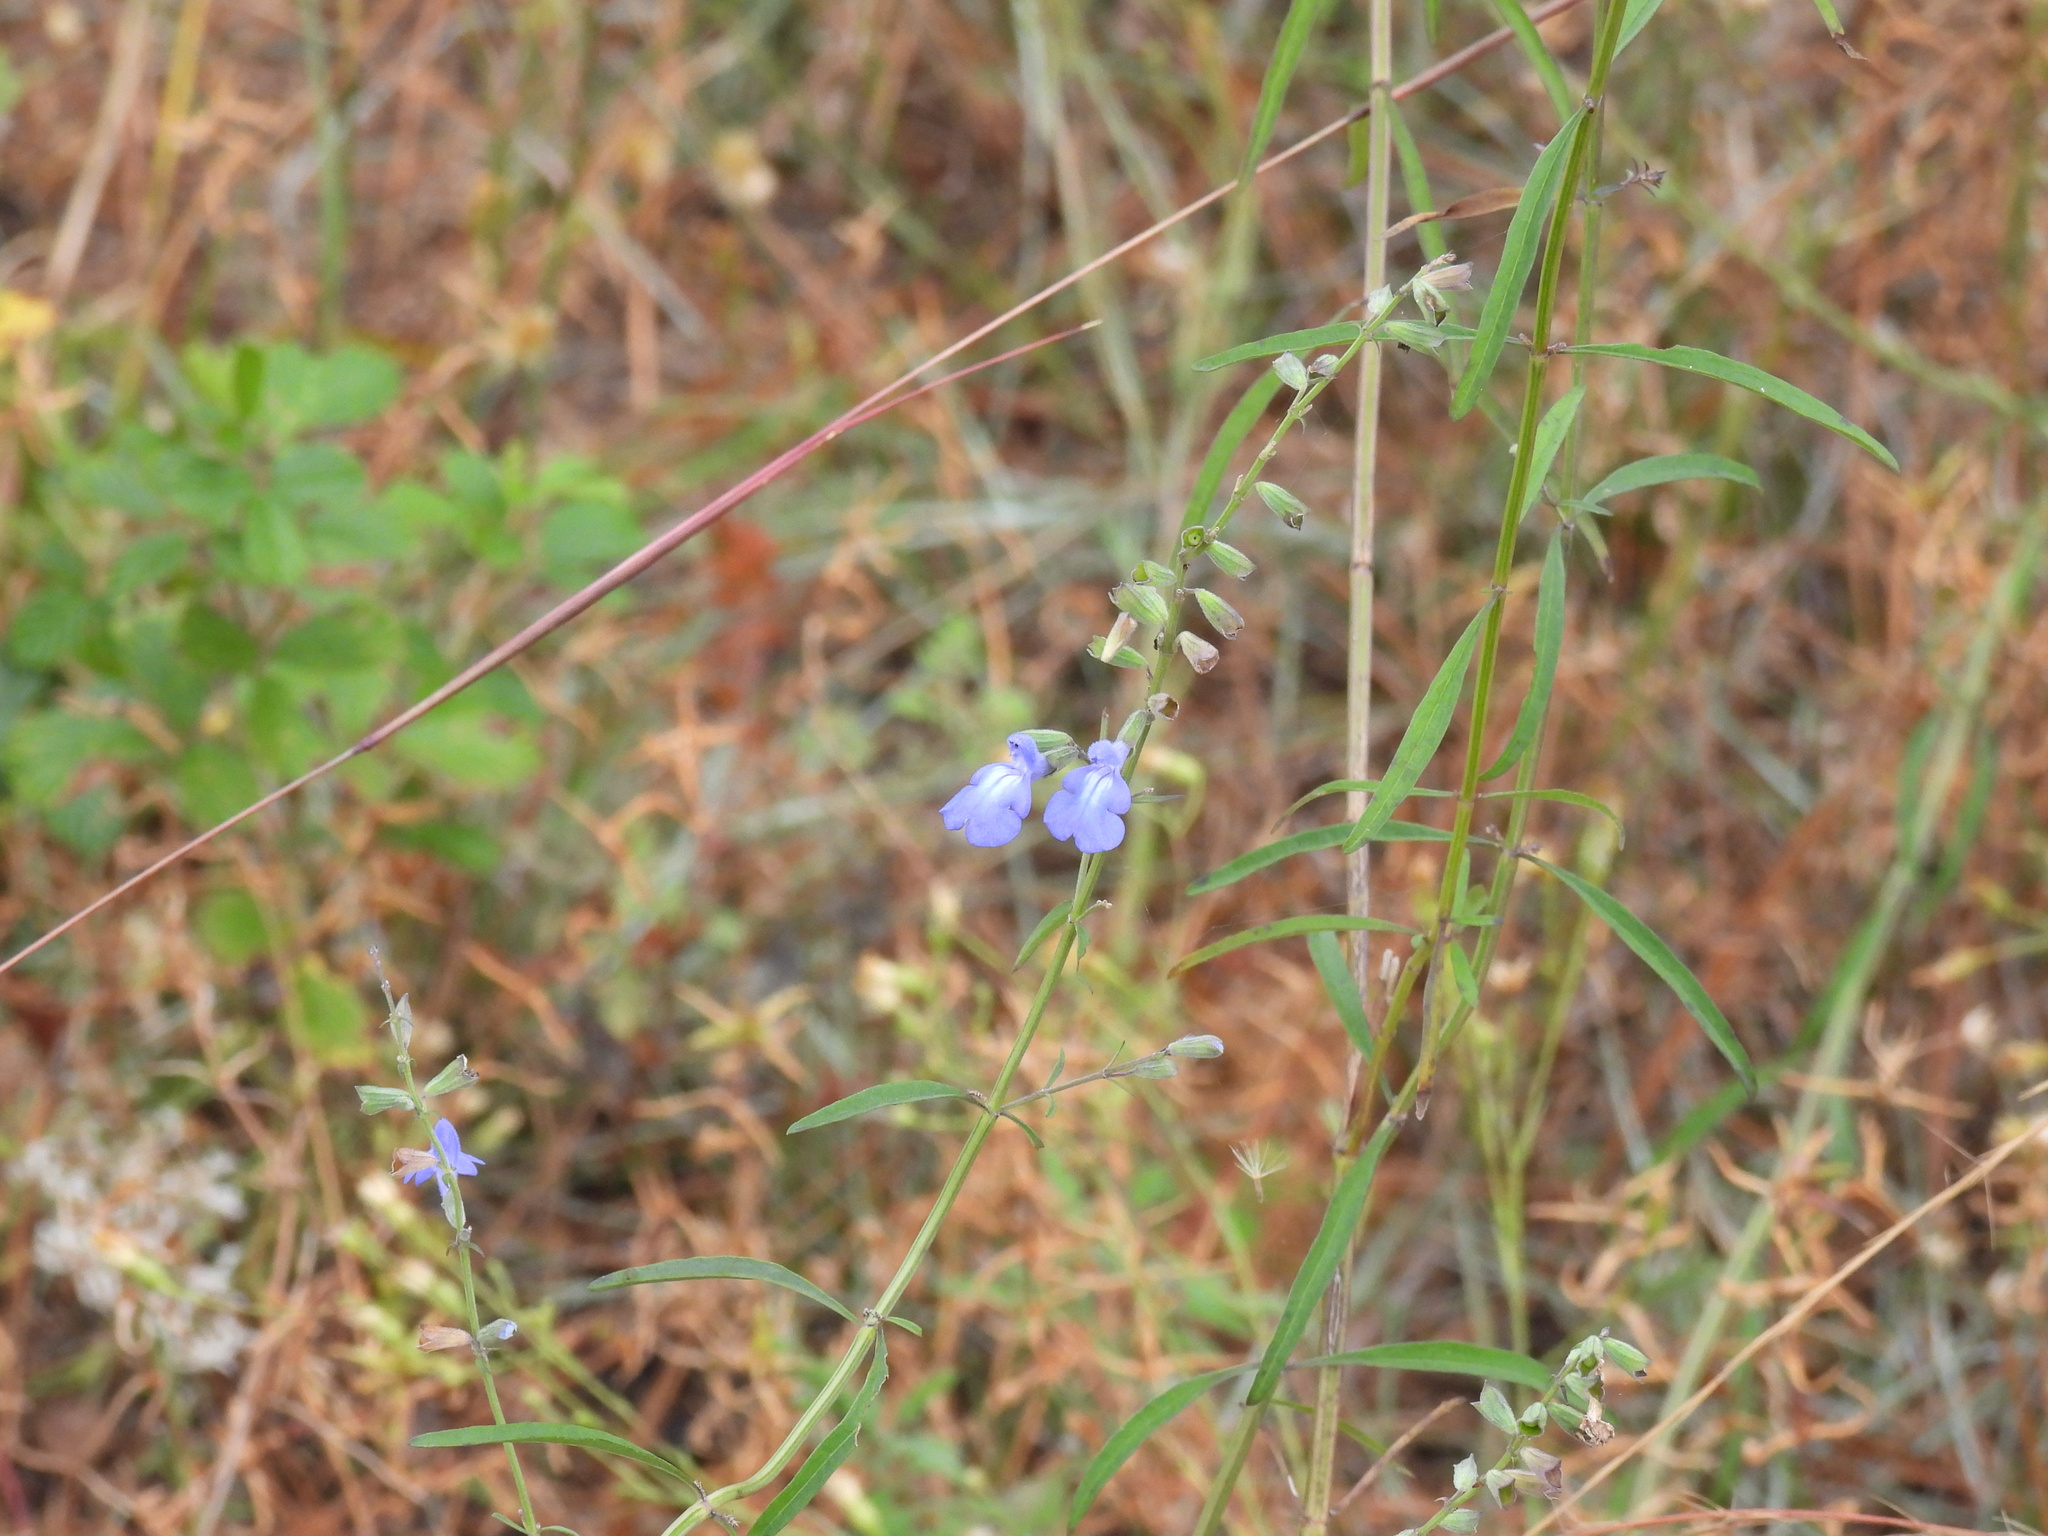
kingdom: Plantae
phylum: Tracheophyta
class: Magnoliopsida
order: Lamiales
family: Lamiaceae
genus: Salvia
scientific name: Salvia azurea
